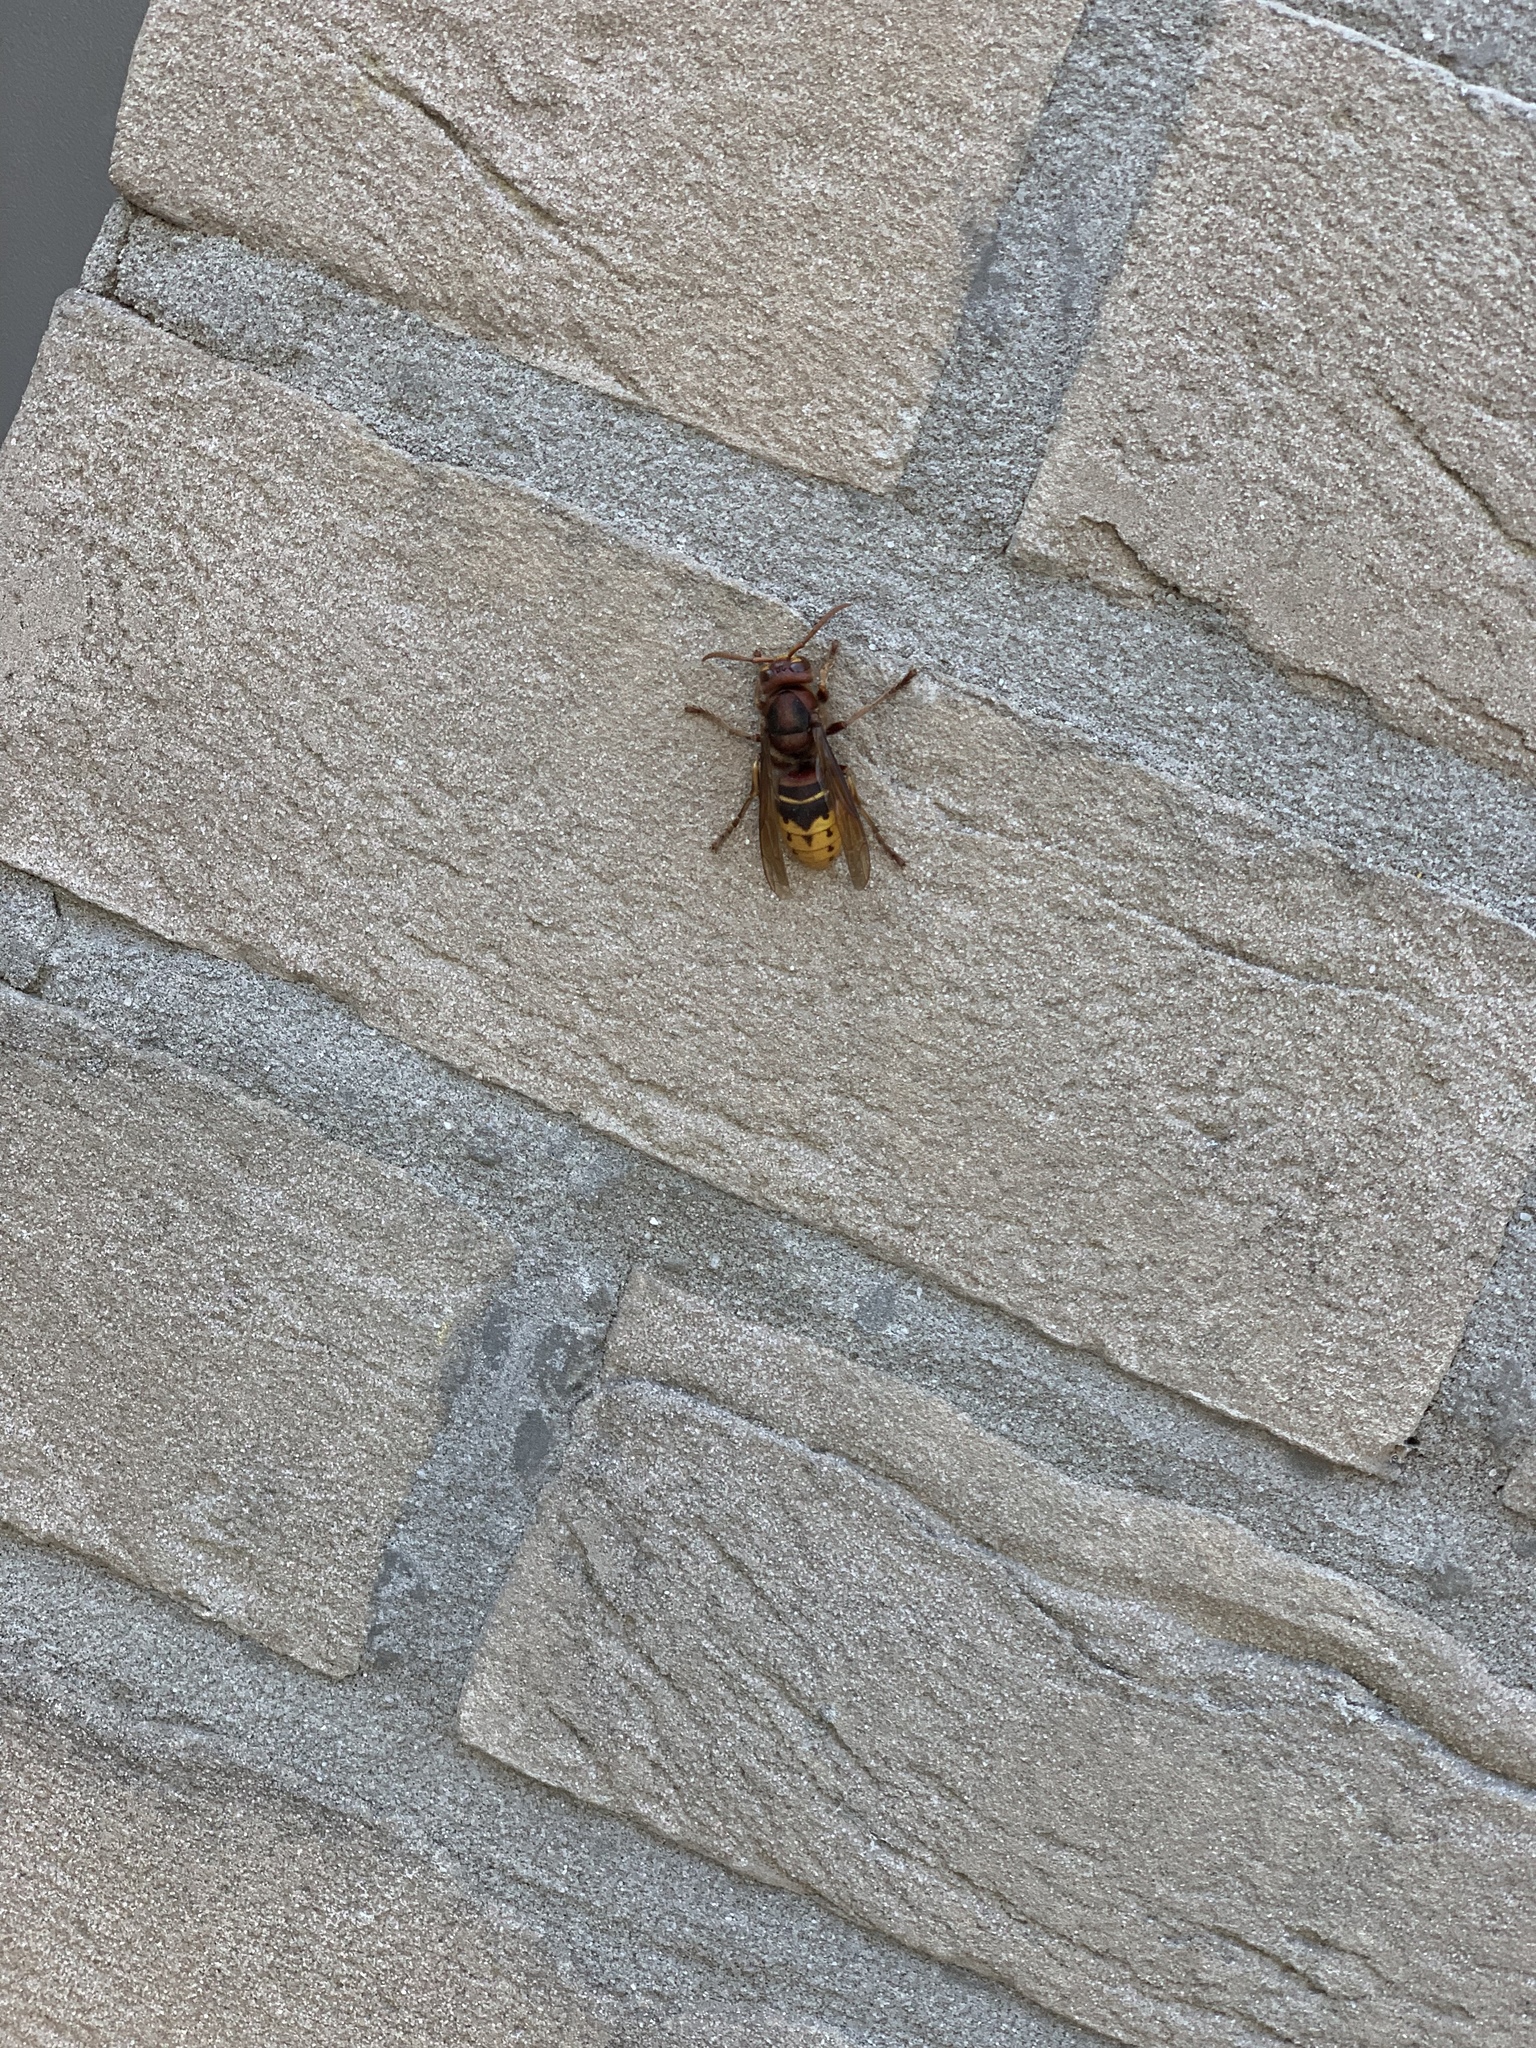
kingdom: Animalia
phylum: Arthropoda
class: Insecta
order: Hymenoptera
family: Vespidae
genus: Vespa
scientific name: Vespa crabro
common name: Hornet
